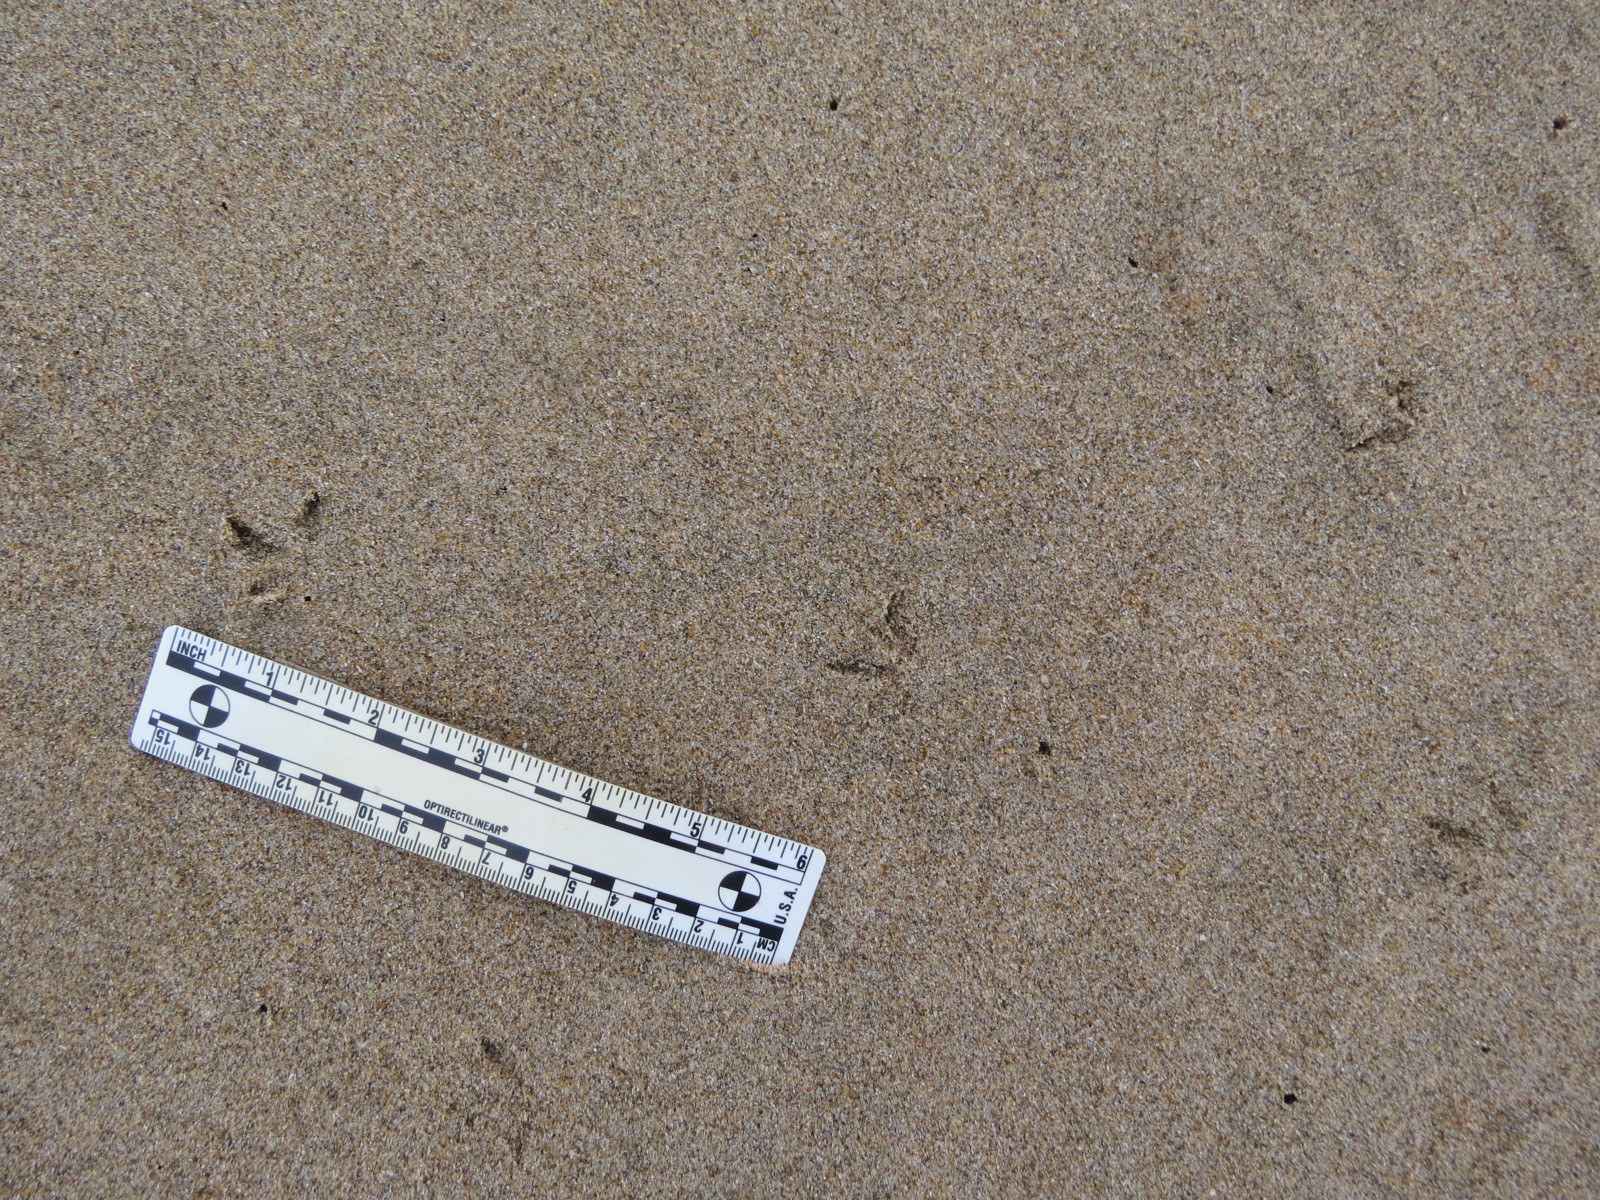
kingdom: Animalia
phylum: Chordata
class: Aves
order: Charadriiformes
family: Scolopacidae
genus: Calidris
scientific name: Calidris alba
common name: Sanderling
